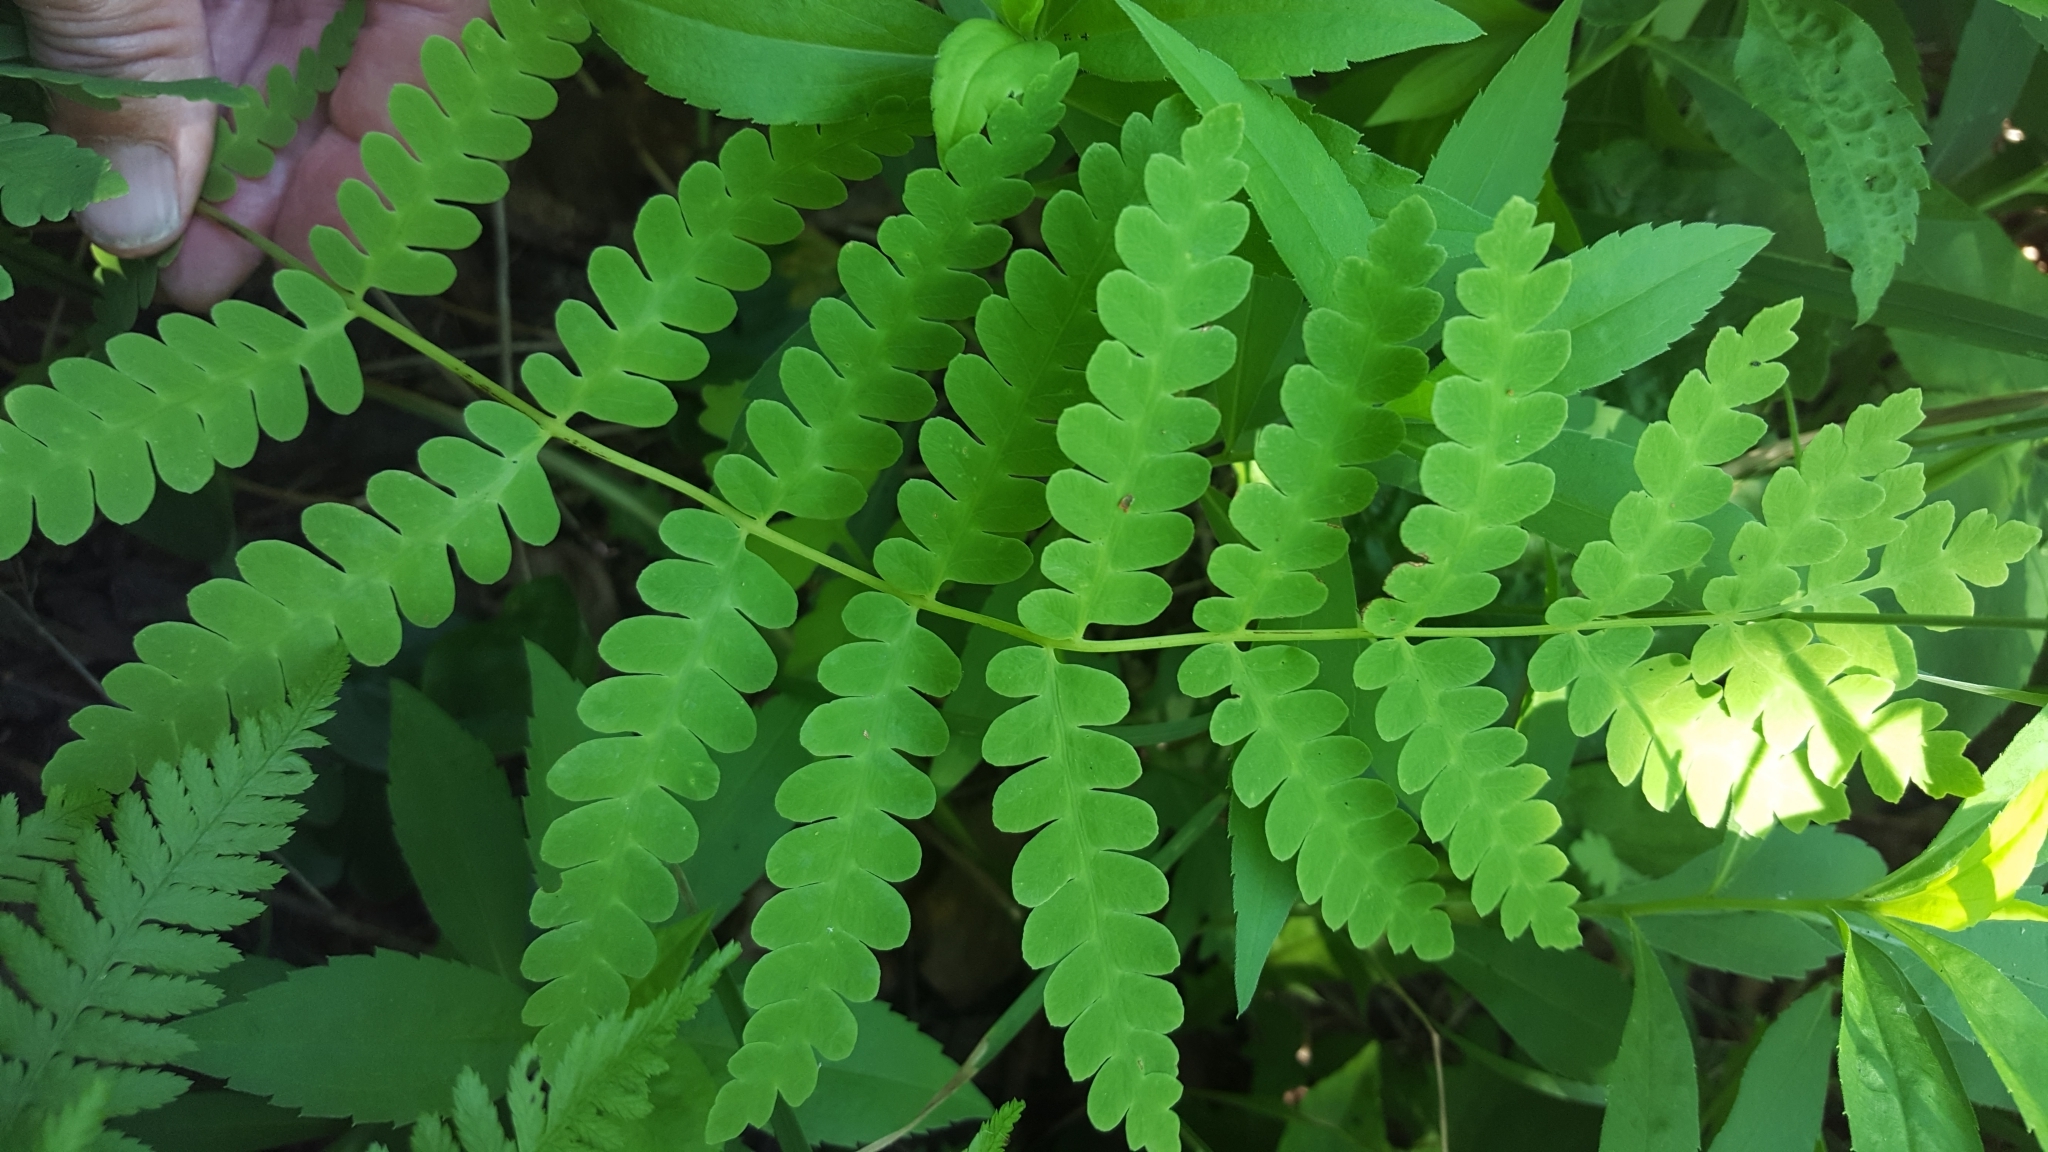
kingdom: Plantae
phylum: Tracheophyta
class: Polypodiopsida
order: Osmundales
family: Osmundaceae
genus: Claytosmunda
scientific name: Claytosmunda claytoniana
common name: Clayton's fern
